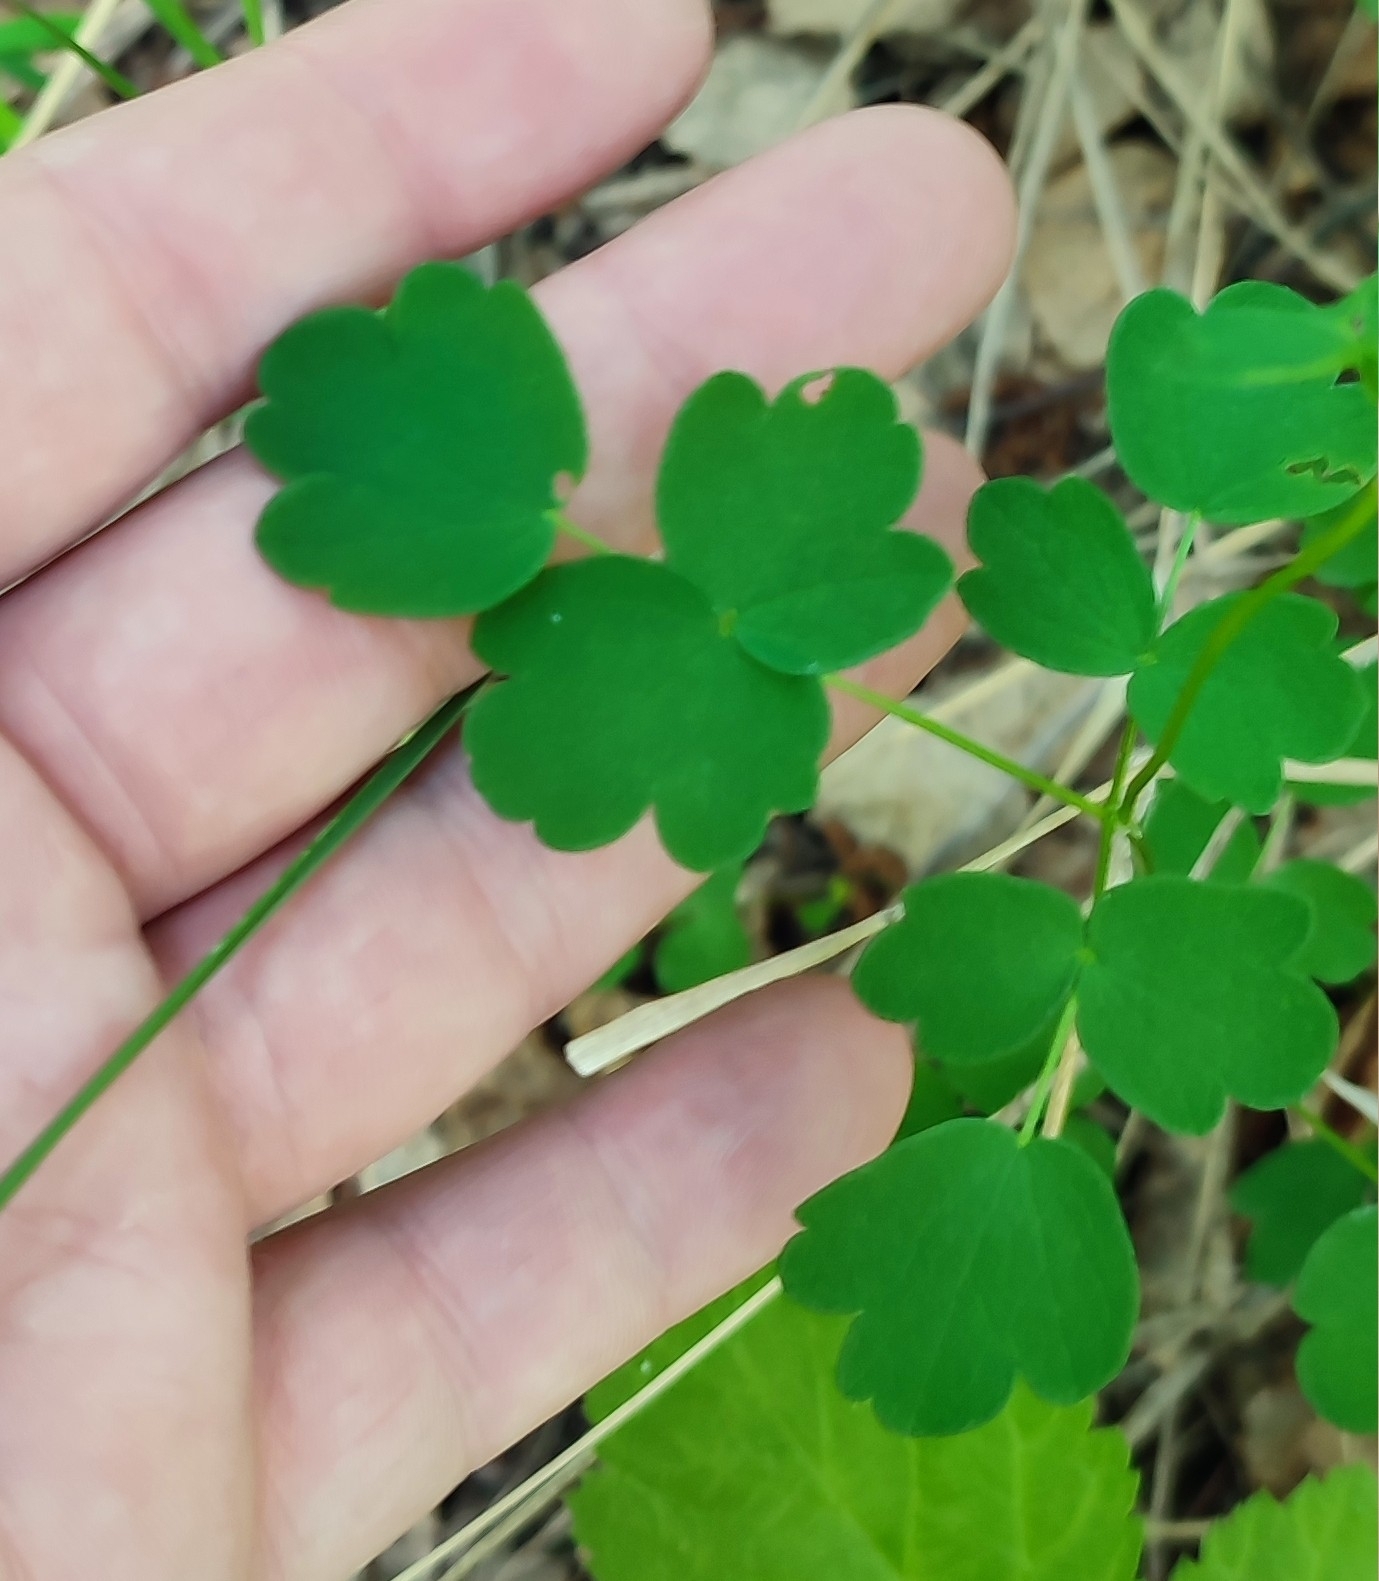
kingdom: Plantae
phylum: Tracheophyta
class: Magnoliopsida
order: Ranunculales
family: Ranunculaceae
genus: Thalictrum
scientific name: Thalictrum minus
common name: Lesser meadow-rue
